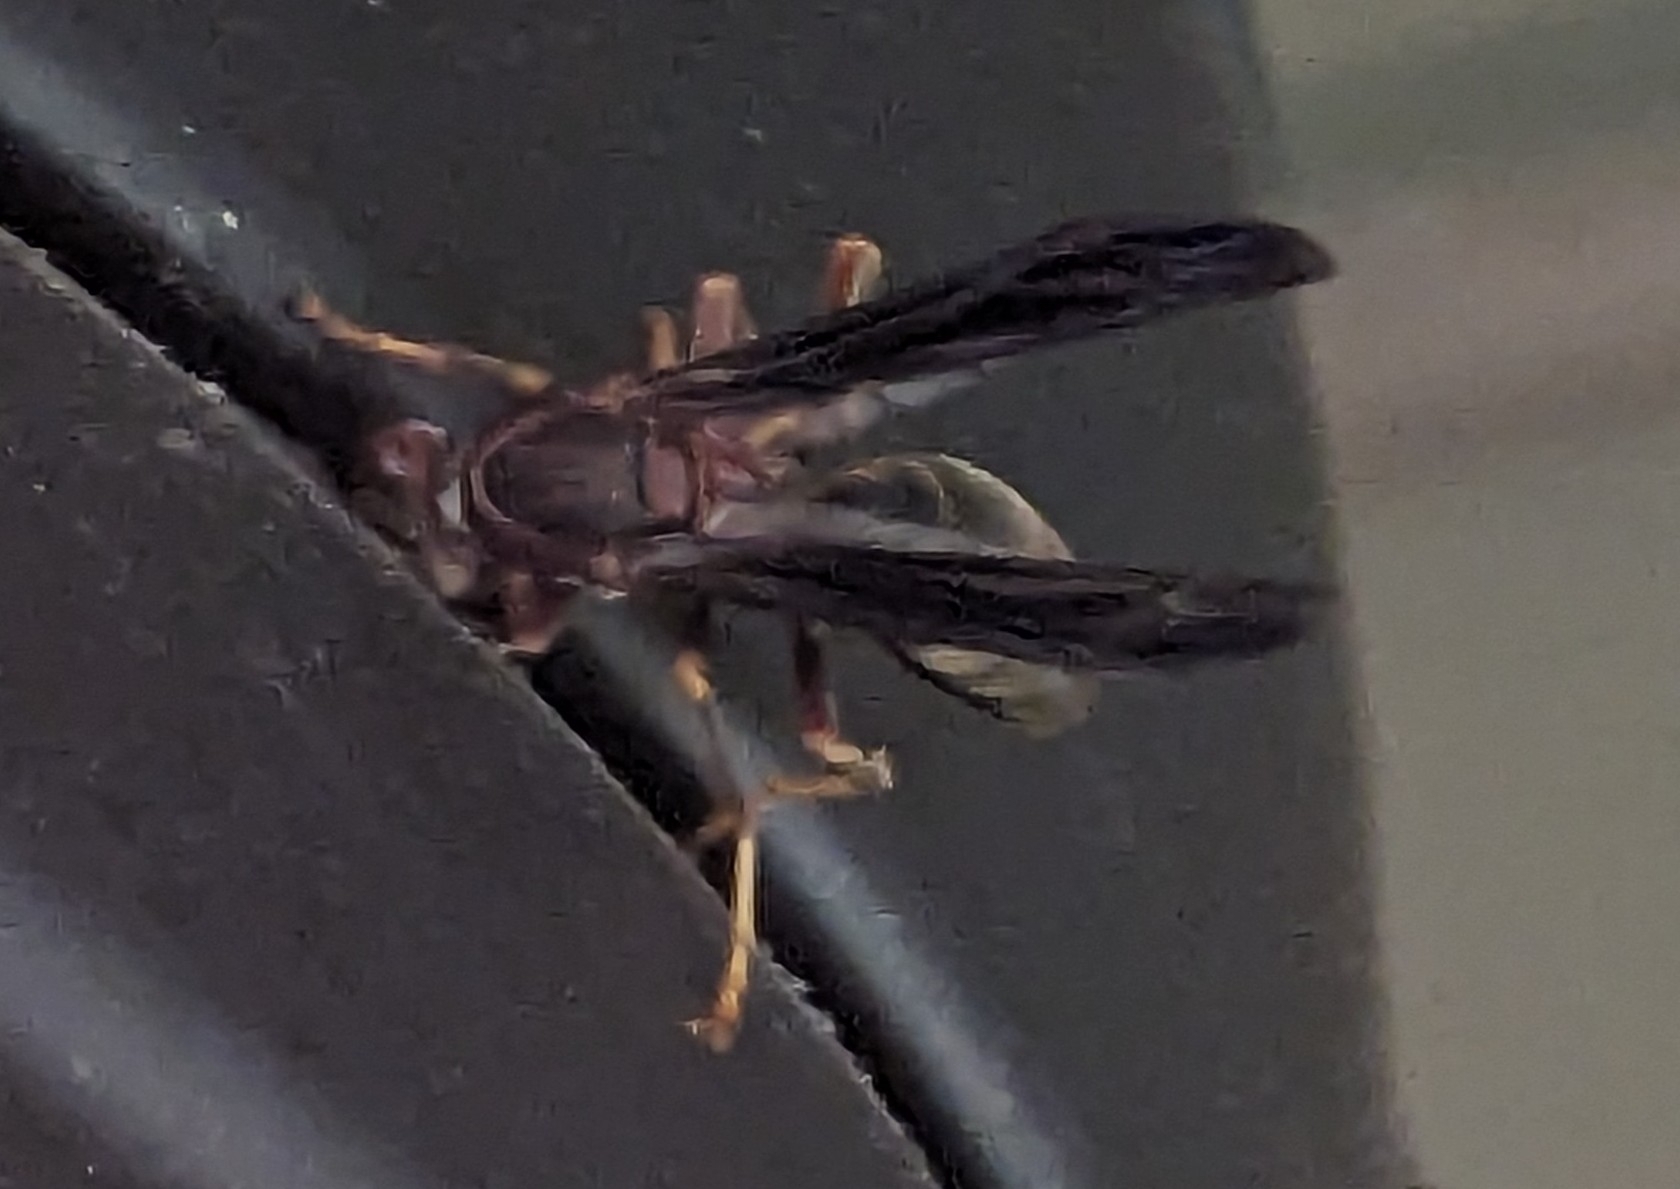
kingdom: Animalia
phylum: Arthropoda
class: Insecta
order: Hymenoptera
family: Eumenidae
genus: Polistes
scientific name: Polistes metricus
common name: Metric paper wasp
